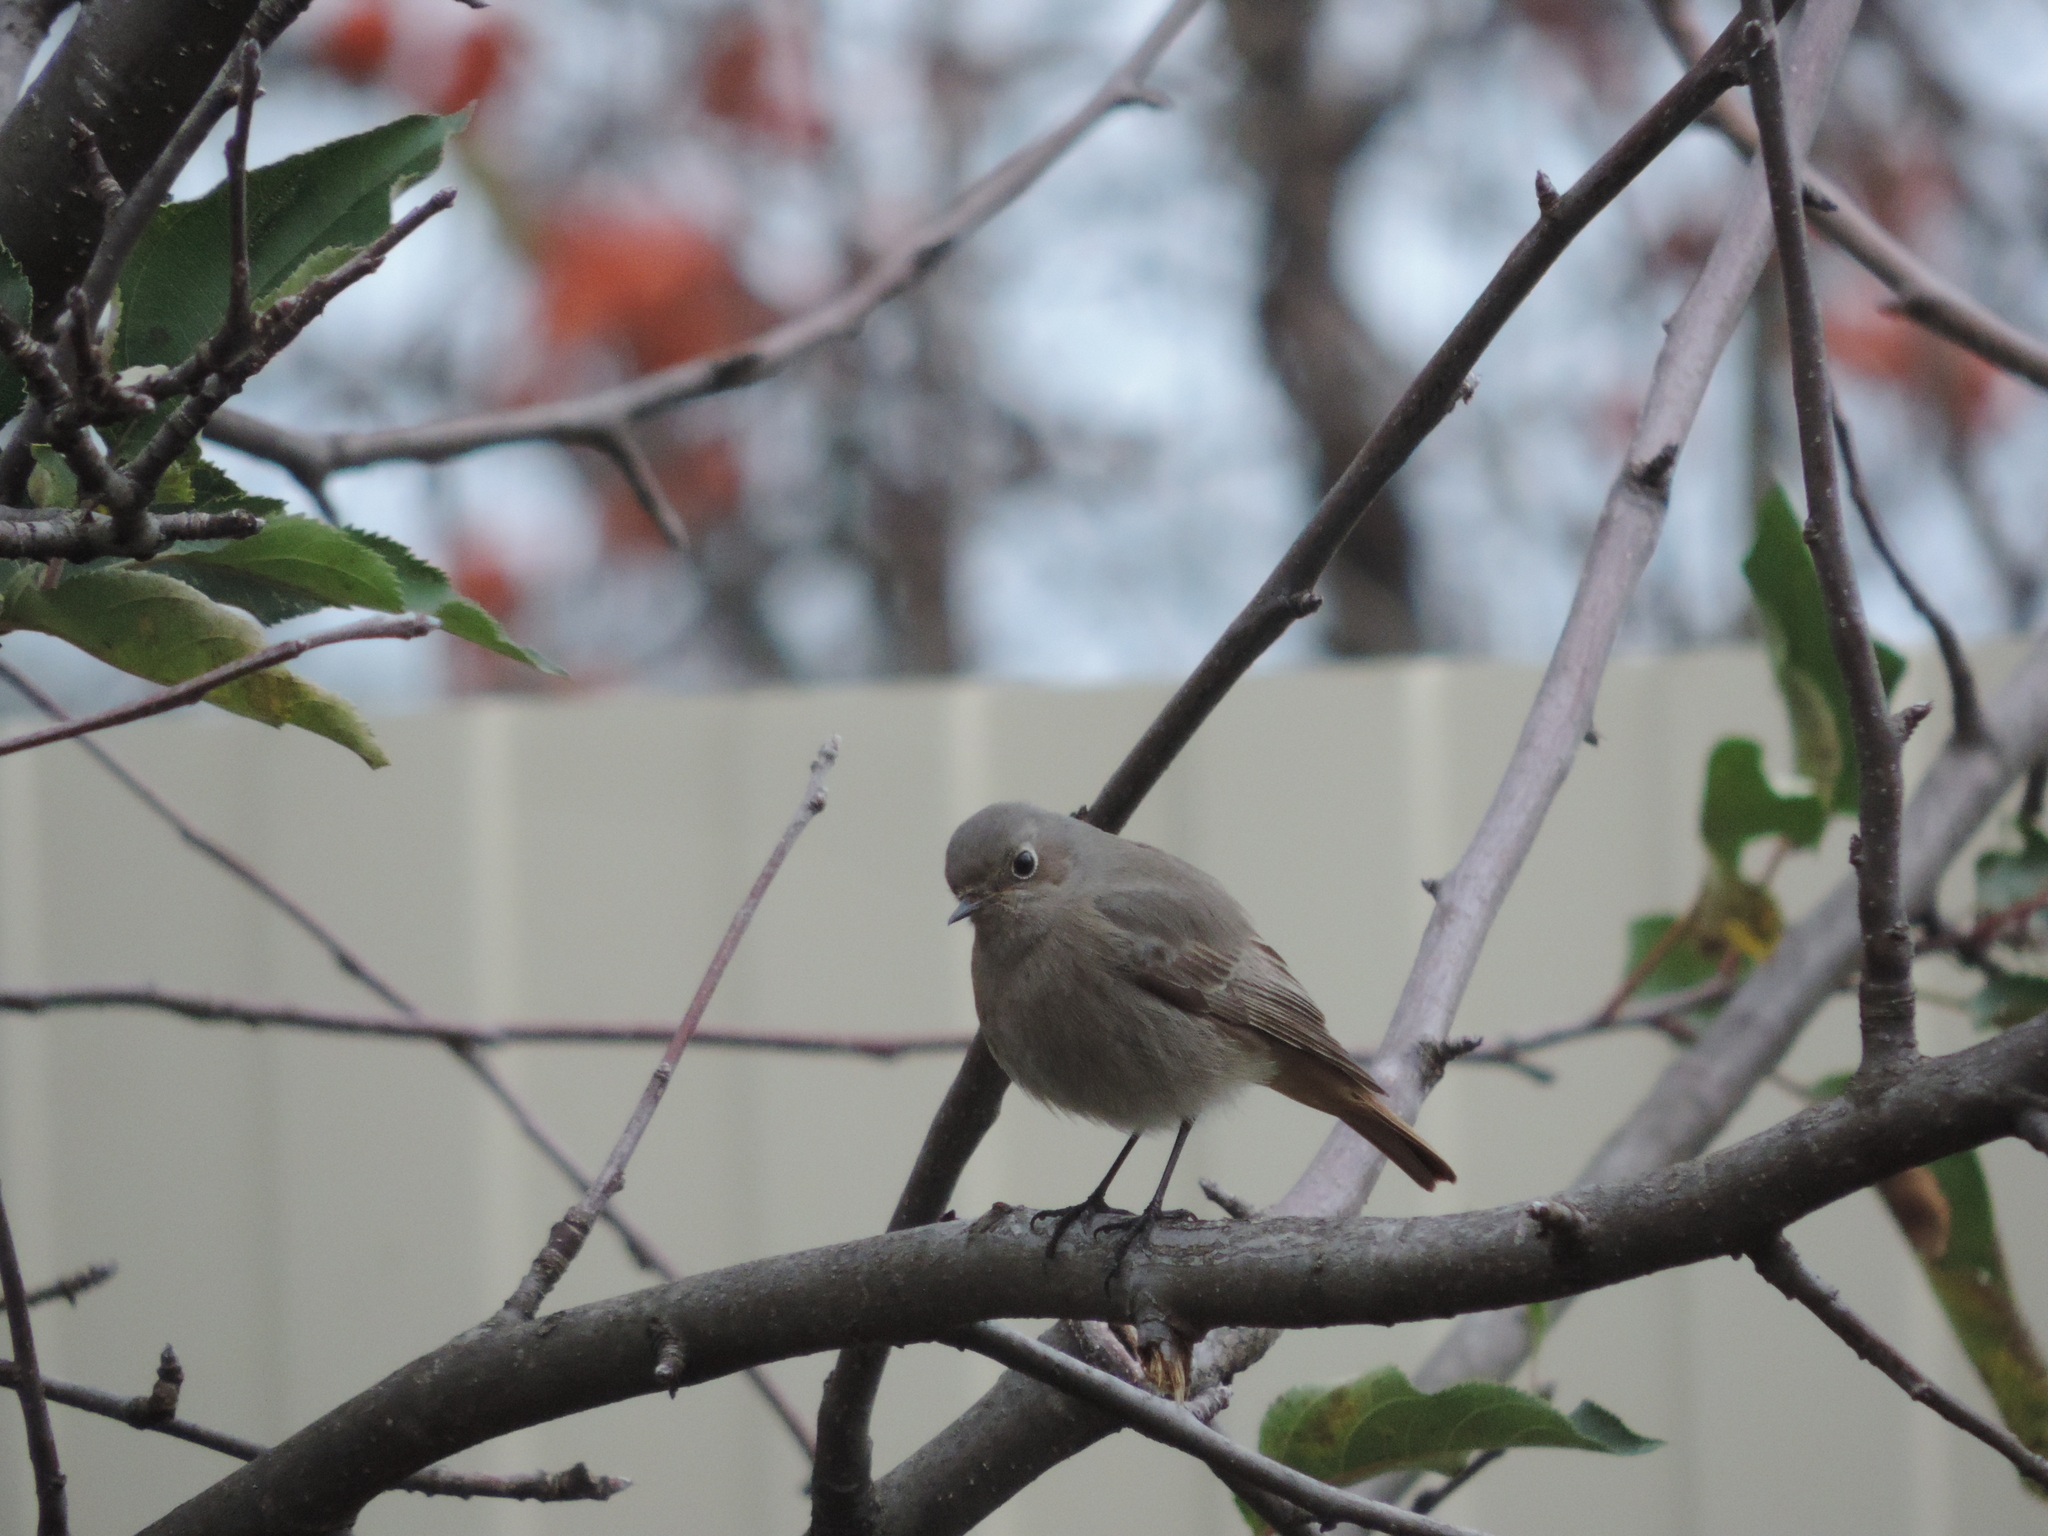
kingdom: Animalia
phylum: Chordata
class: Aves
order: Passeriformes
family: Muscicapidae
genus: Phoenicurus
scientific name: Phoenicurus ochruros
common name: Black redstart
